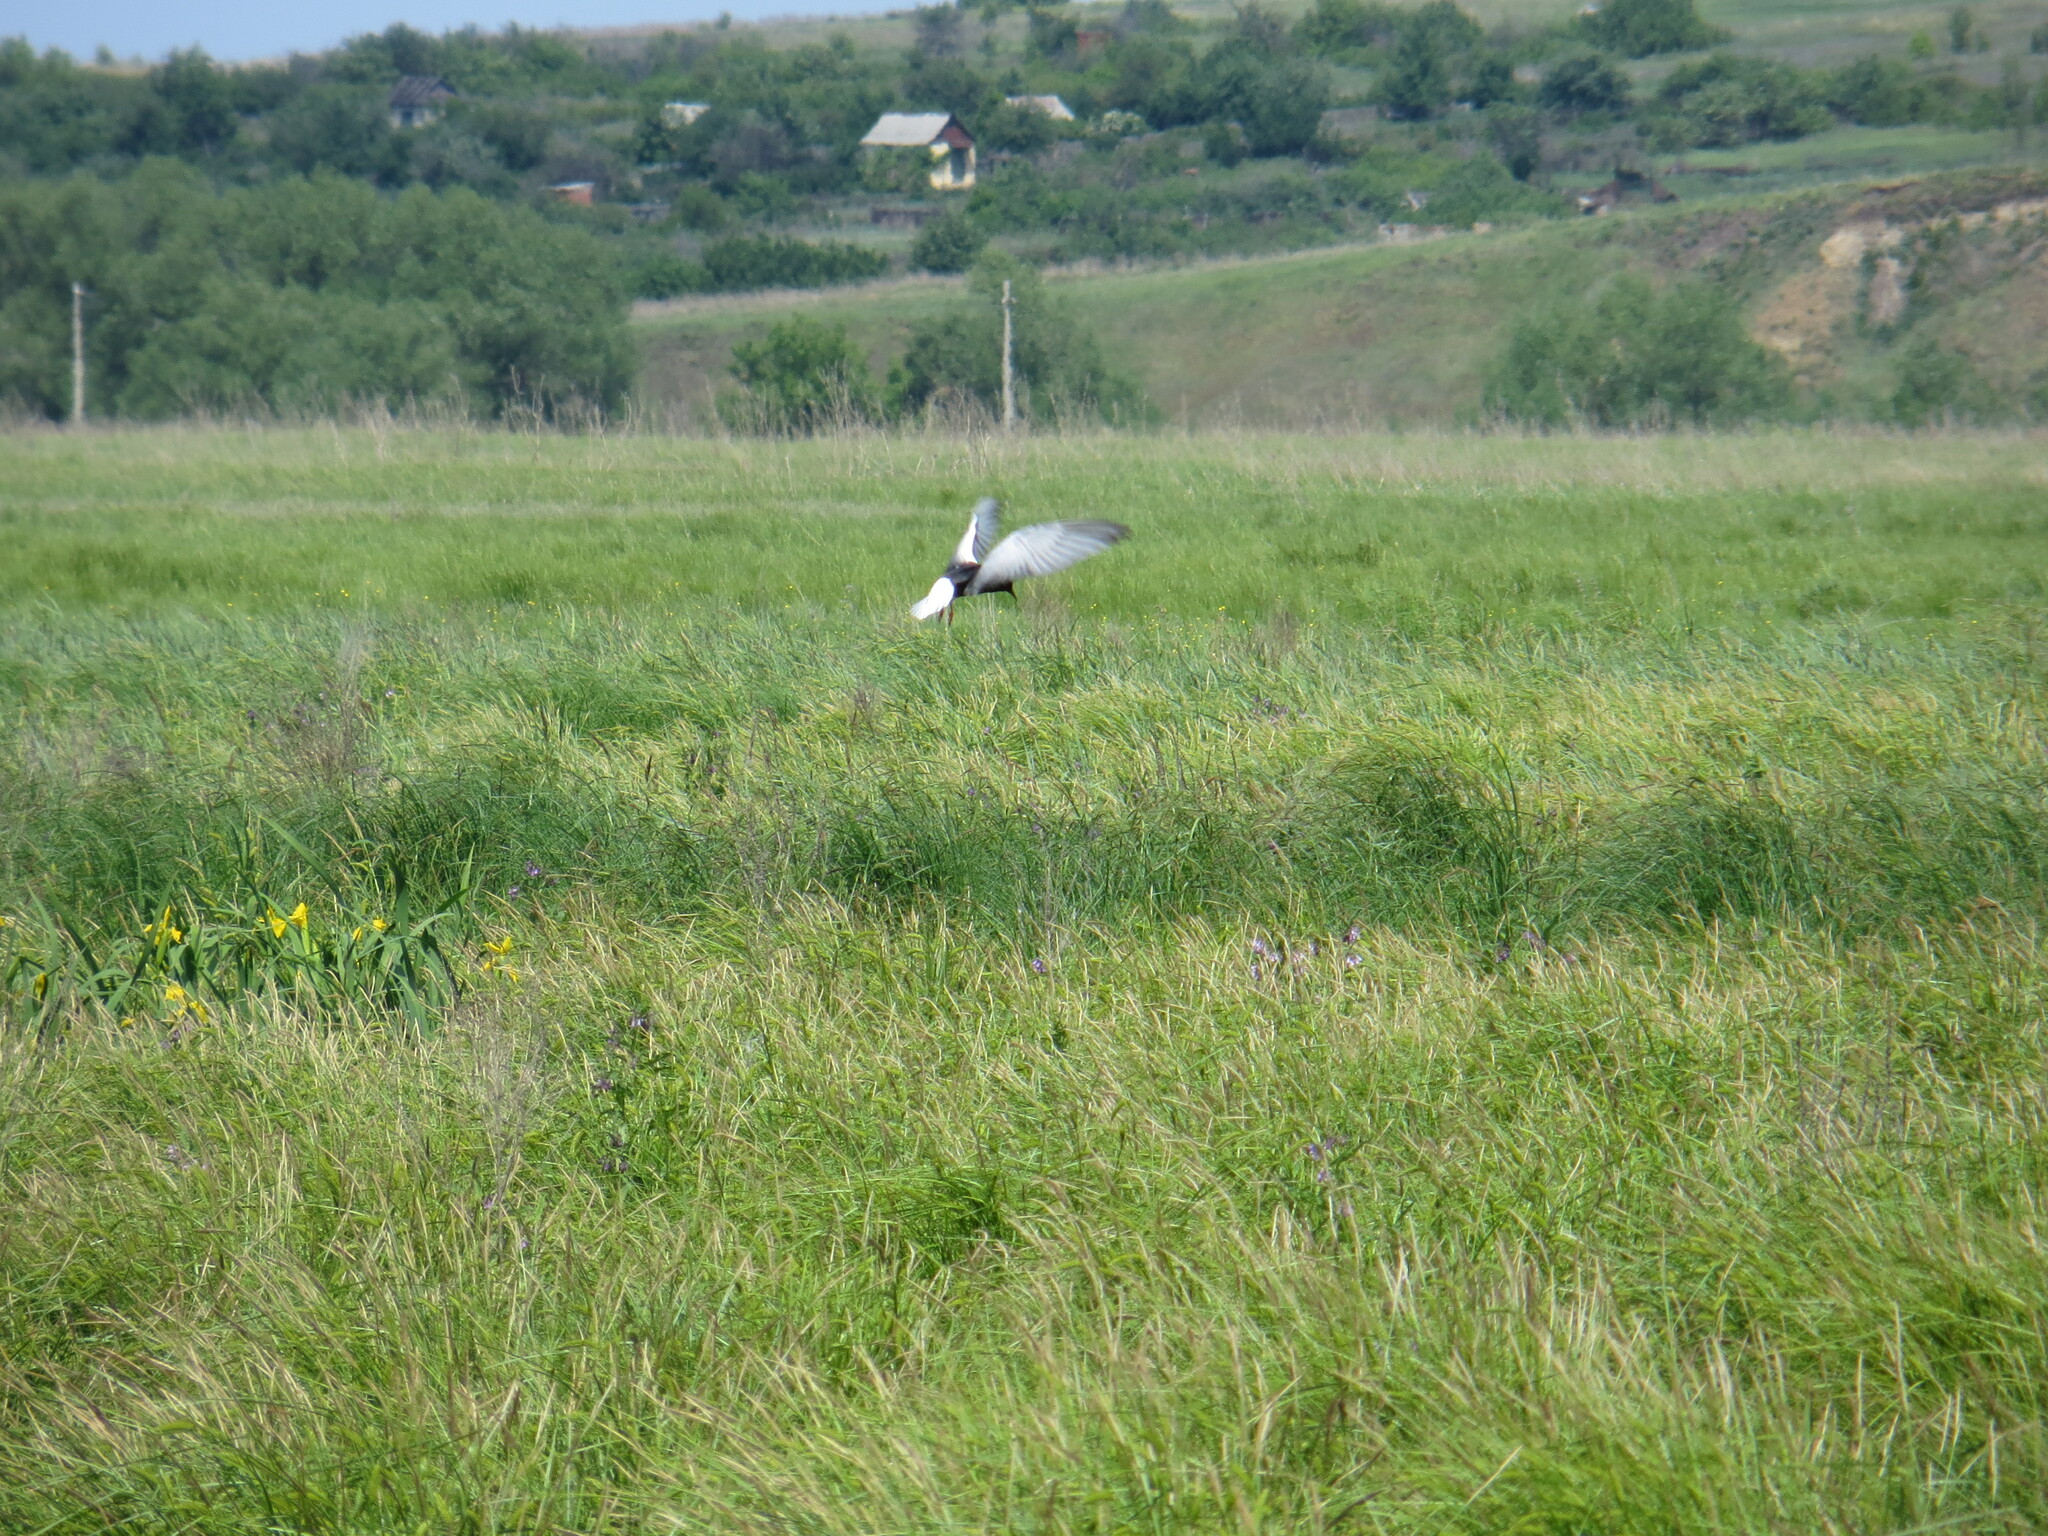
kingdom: Animalia
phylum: Chordata
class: Aves
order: Charadriiformes
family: Laridae
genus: Chlidonias
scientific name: Chlidonias leucopterus
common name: White-winged tern
